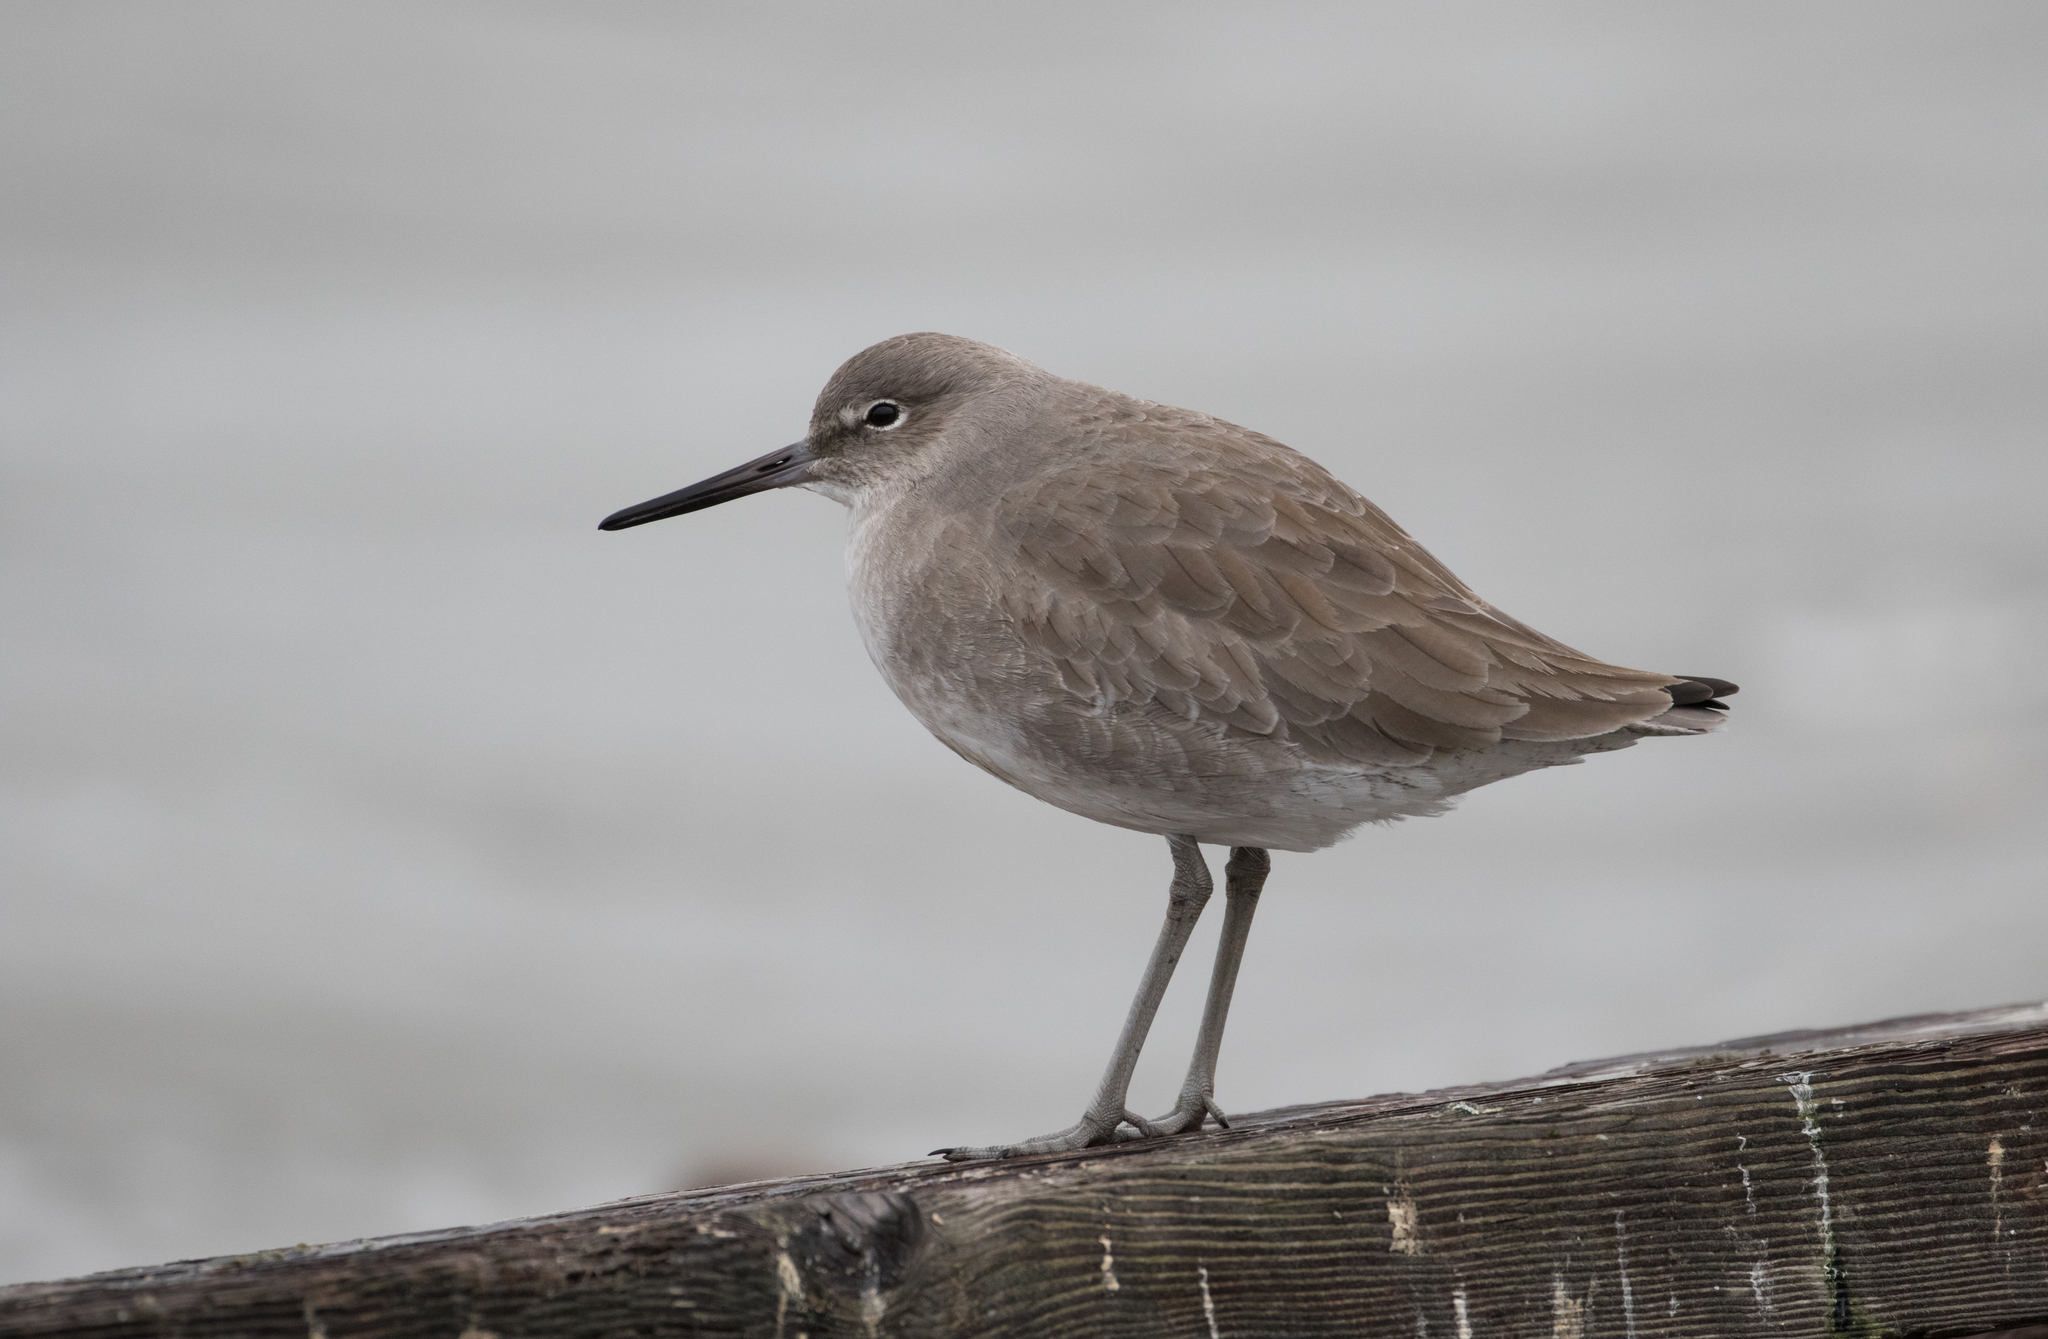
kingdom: Animalia
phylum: Chordata
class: Aves
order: Charadriiformes
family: Scolopacidae
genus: Tringa
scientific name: Tringa semipalmata
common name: Willet
